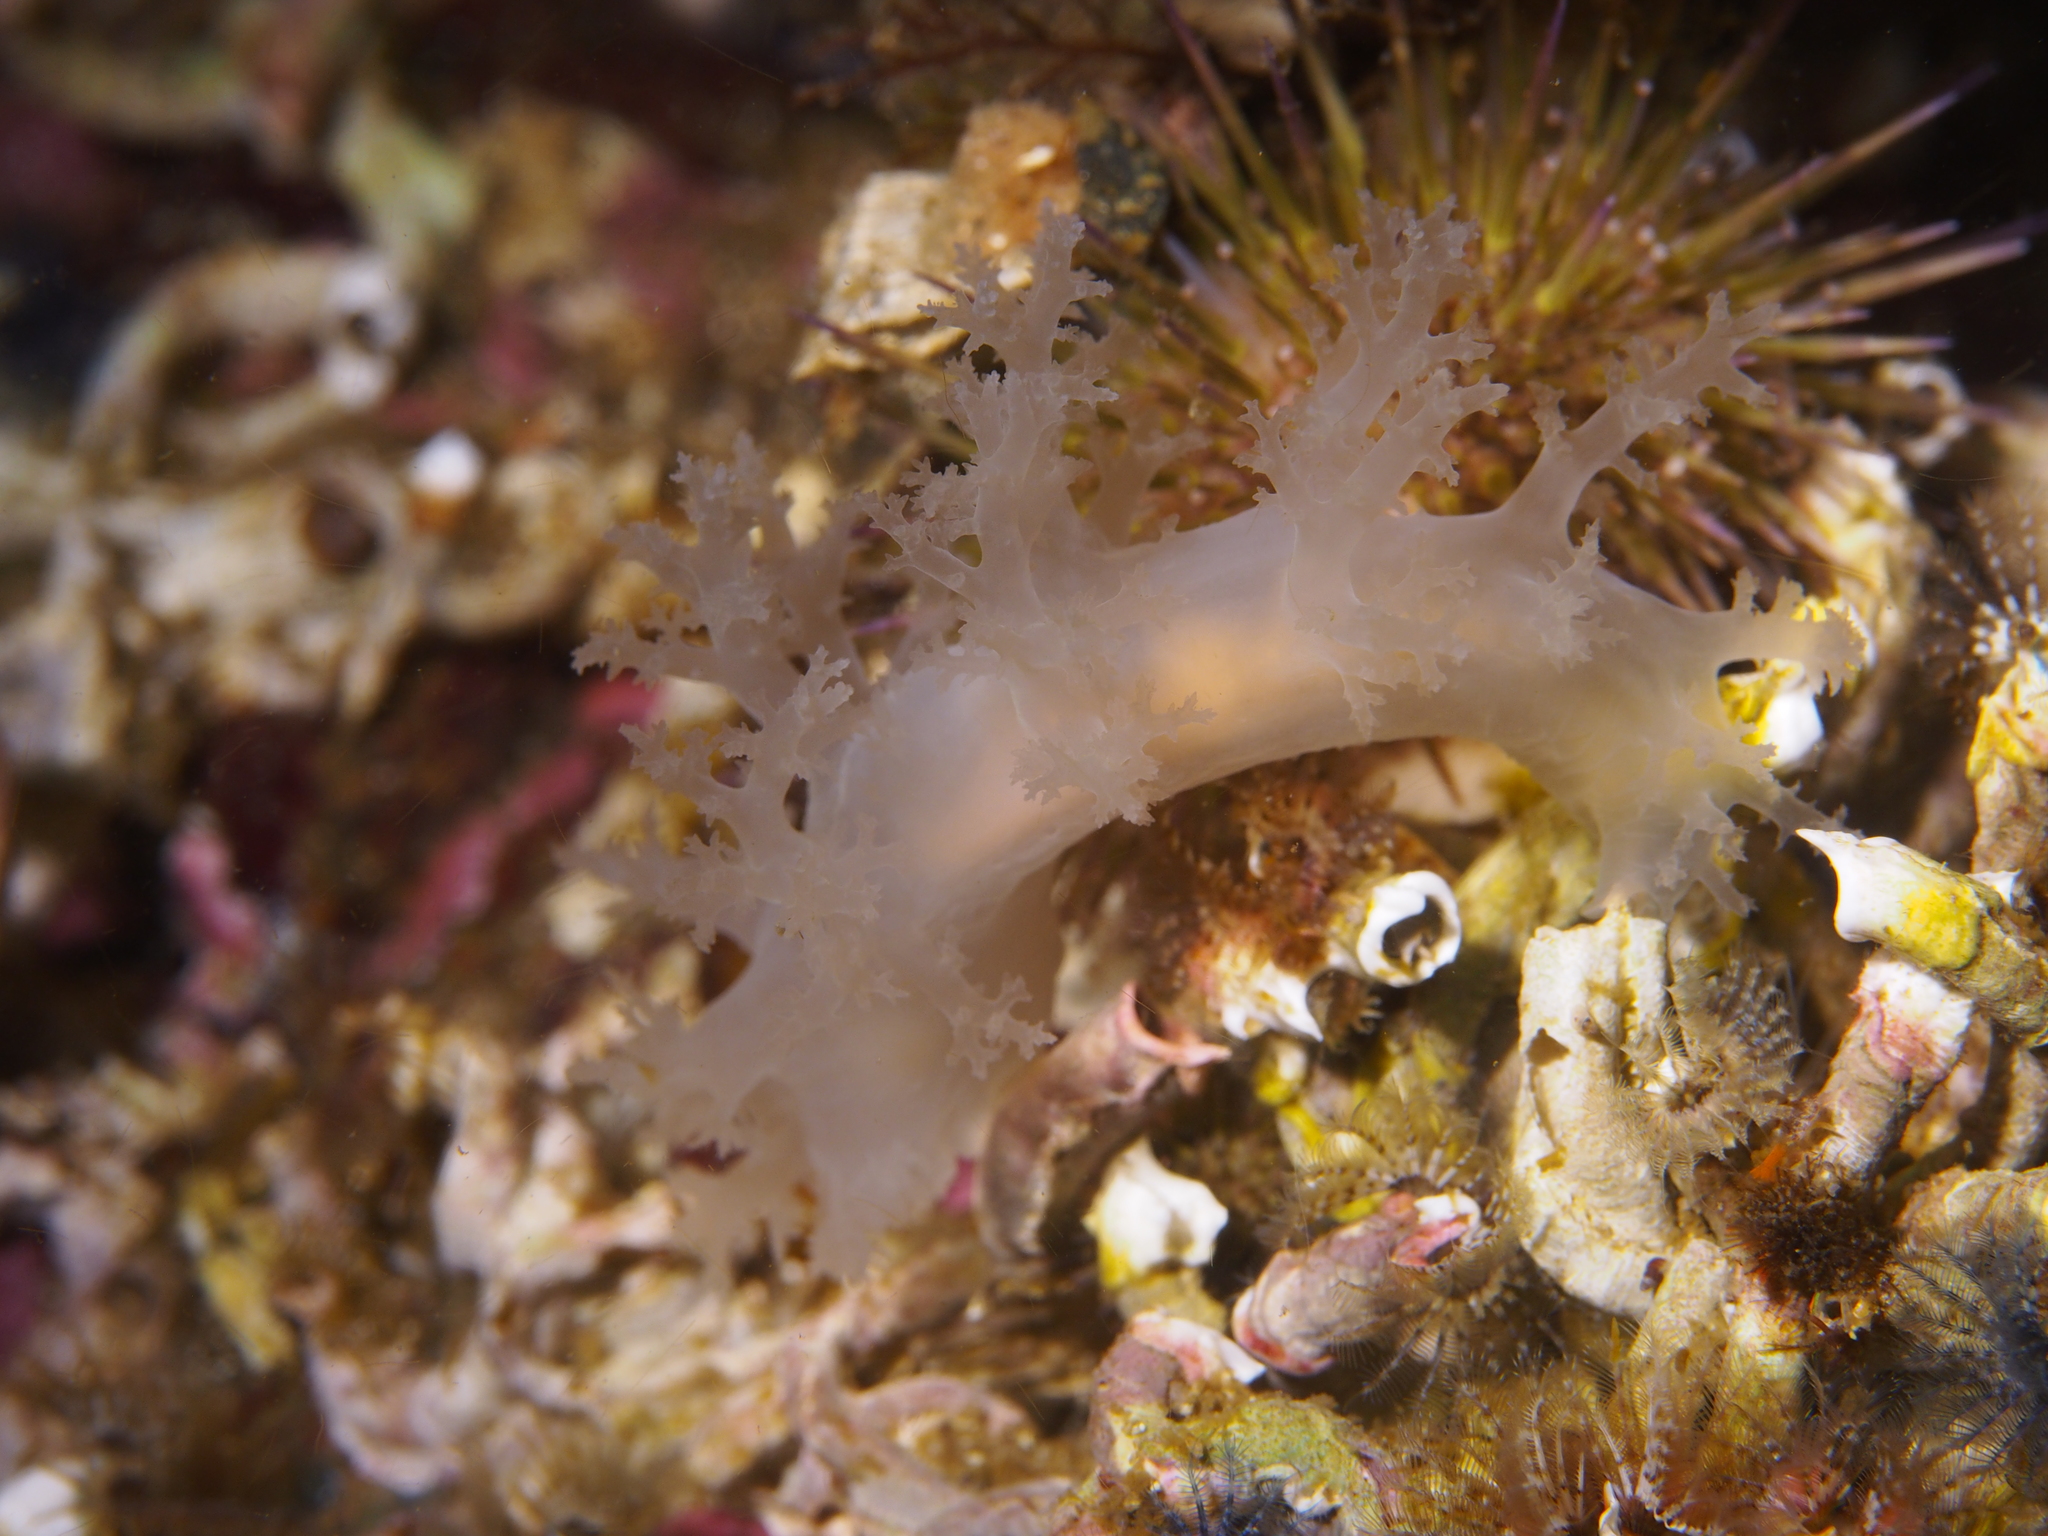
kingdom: Animalia
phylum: Mollusca
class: Gastropoda
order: Nudibranchia
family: Dendronotidae
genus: Dendronotus
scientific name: Dendronotus lacteus
